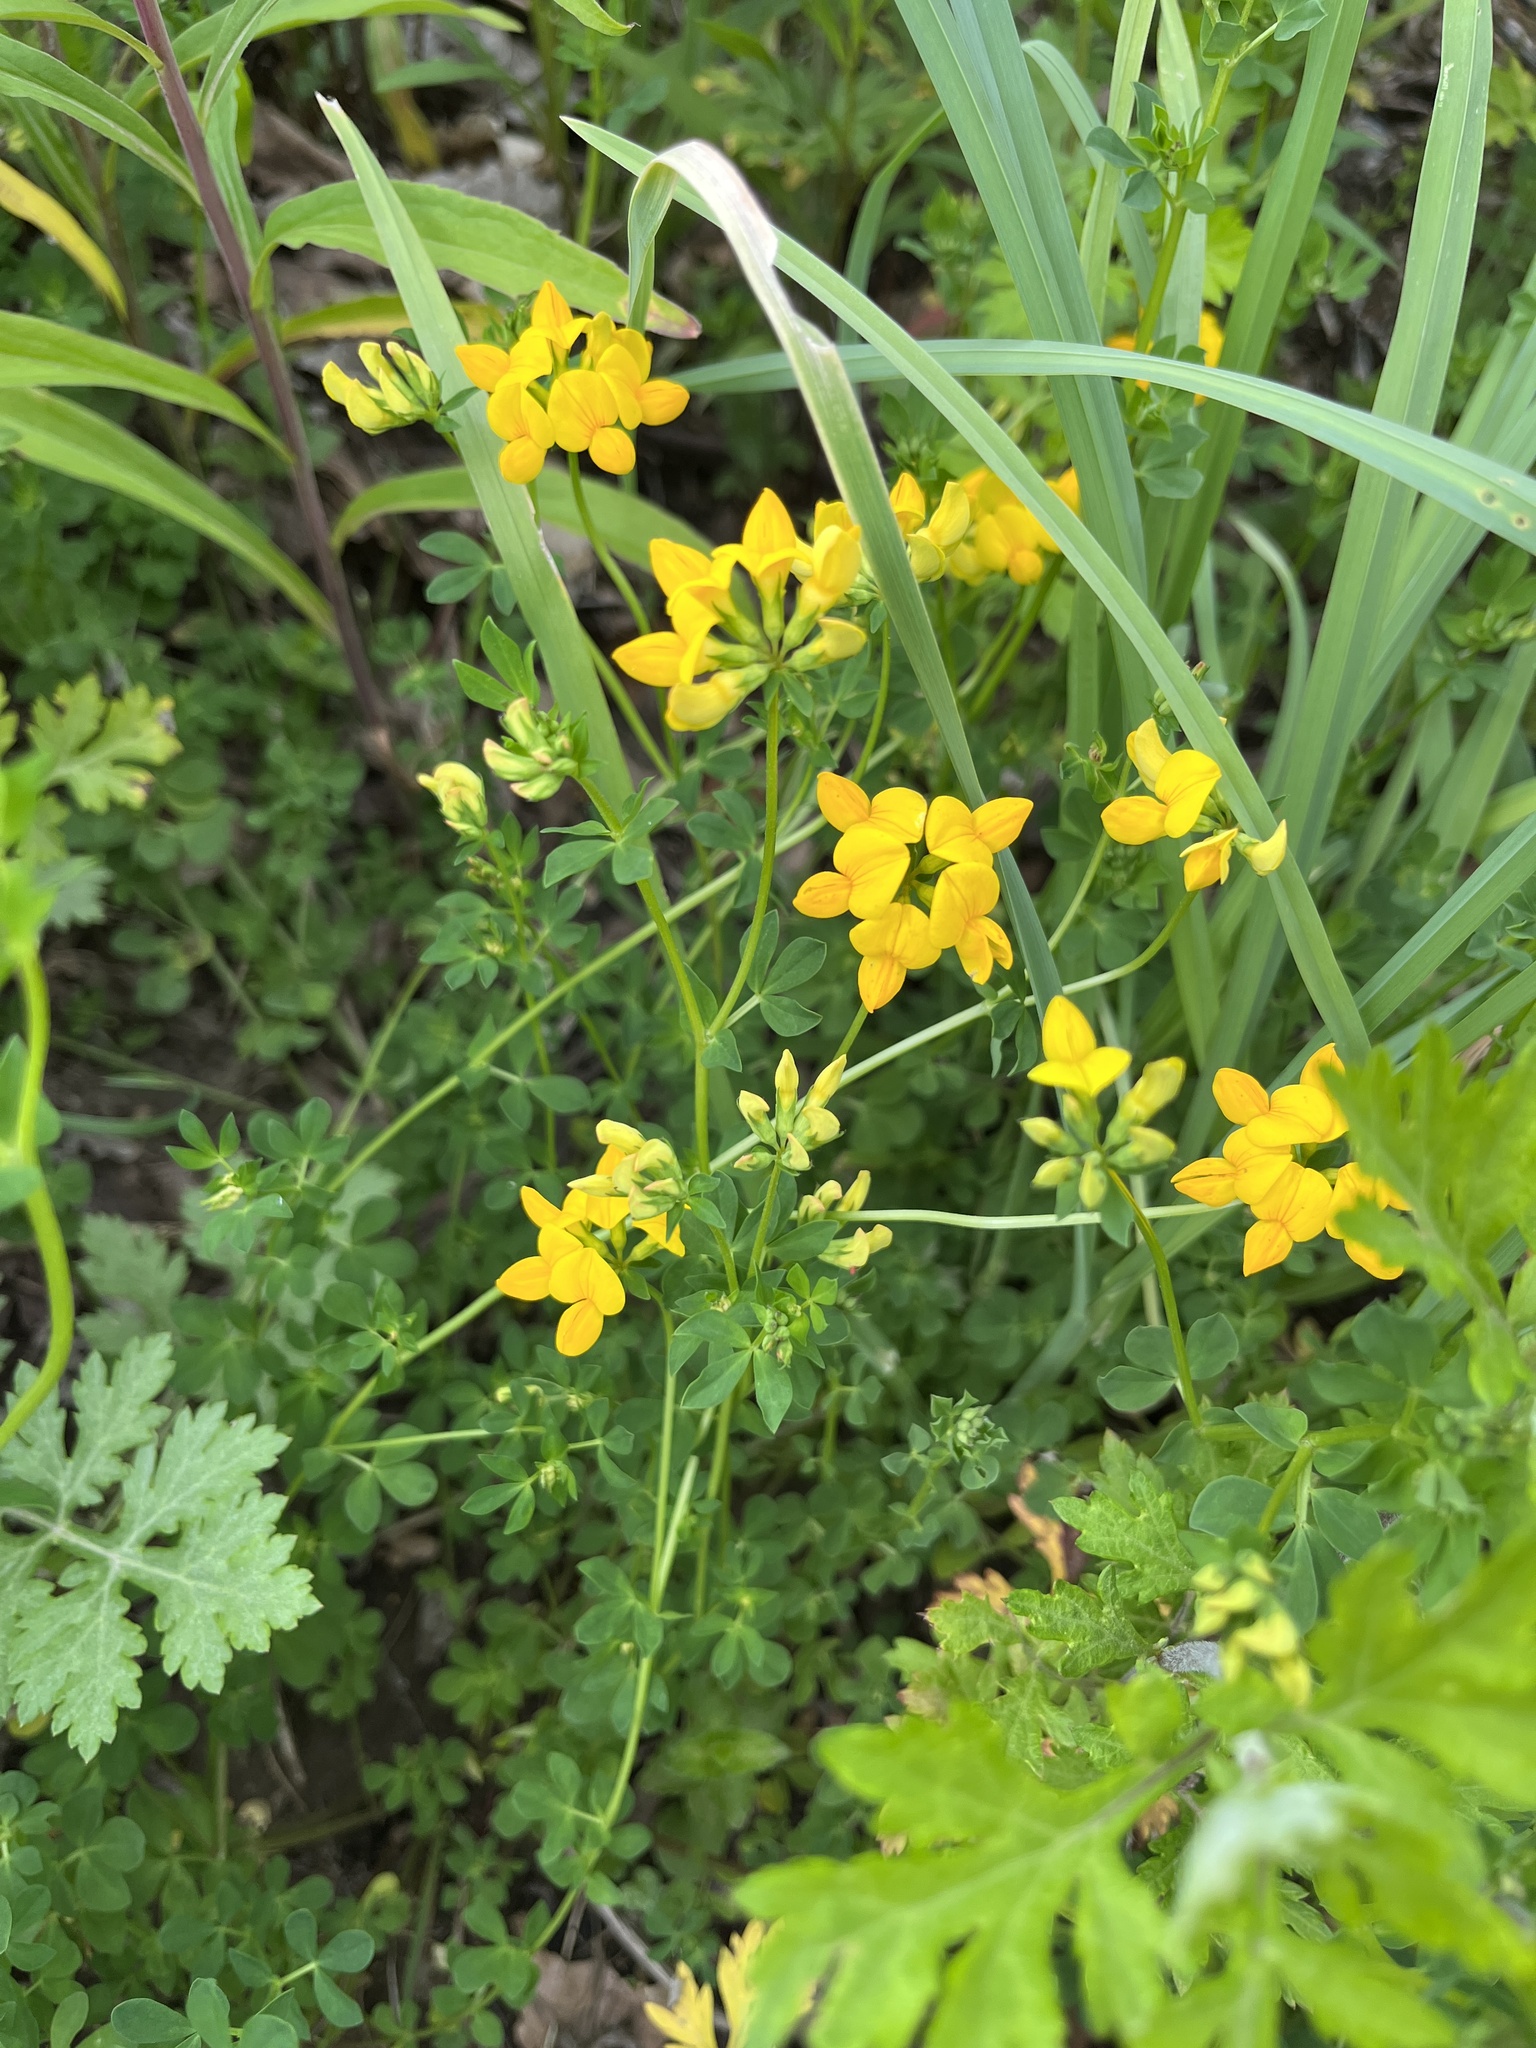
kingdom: Plantae
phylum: Tracheophyta
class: Magnoliopsida
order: Fabales
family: Fabaceae
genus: Lotus
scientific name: Lotus corniculatus
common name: Common bird's-foot-trefoil
